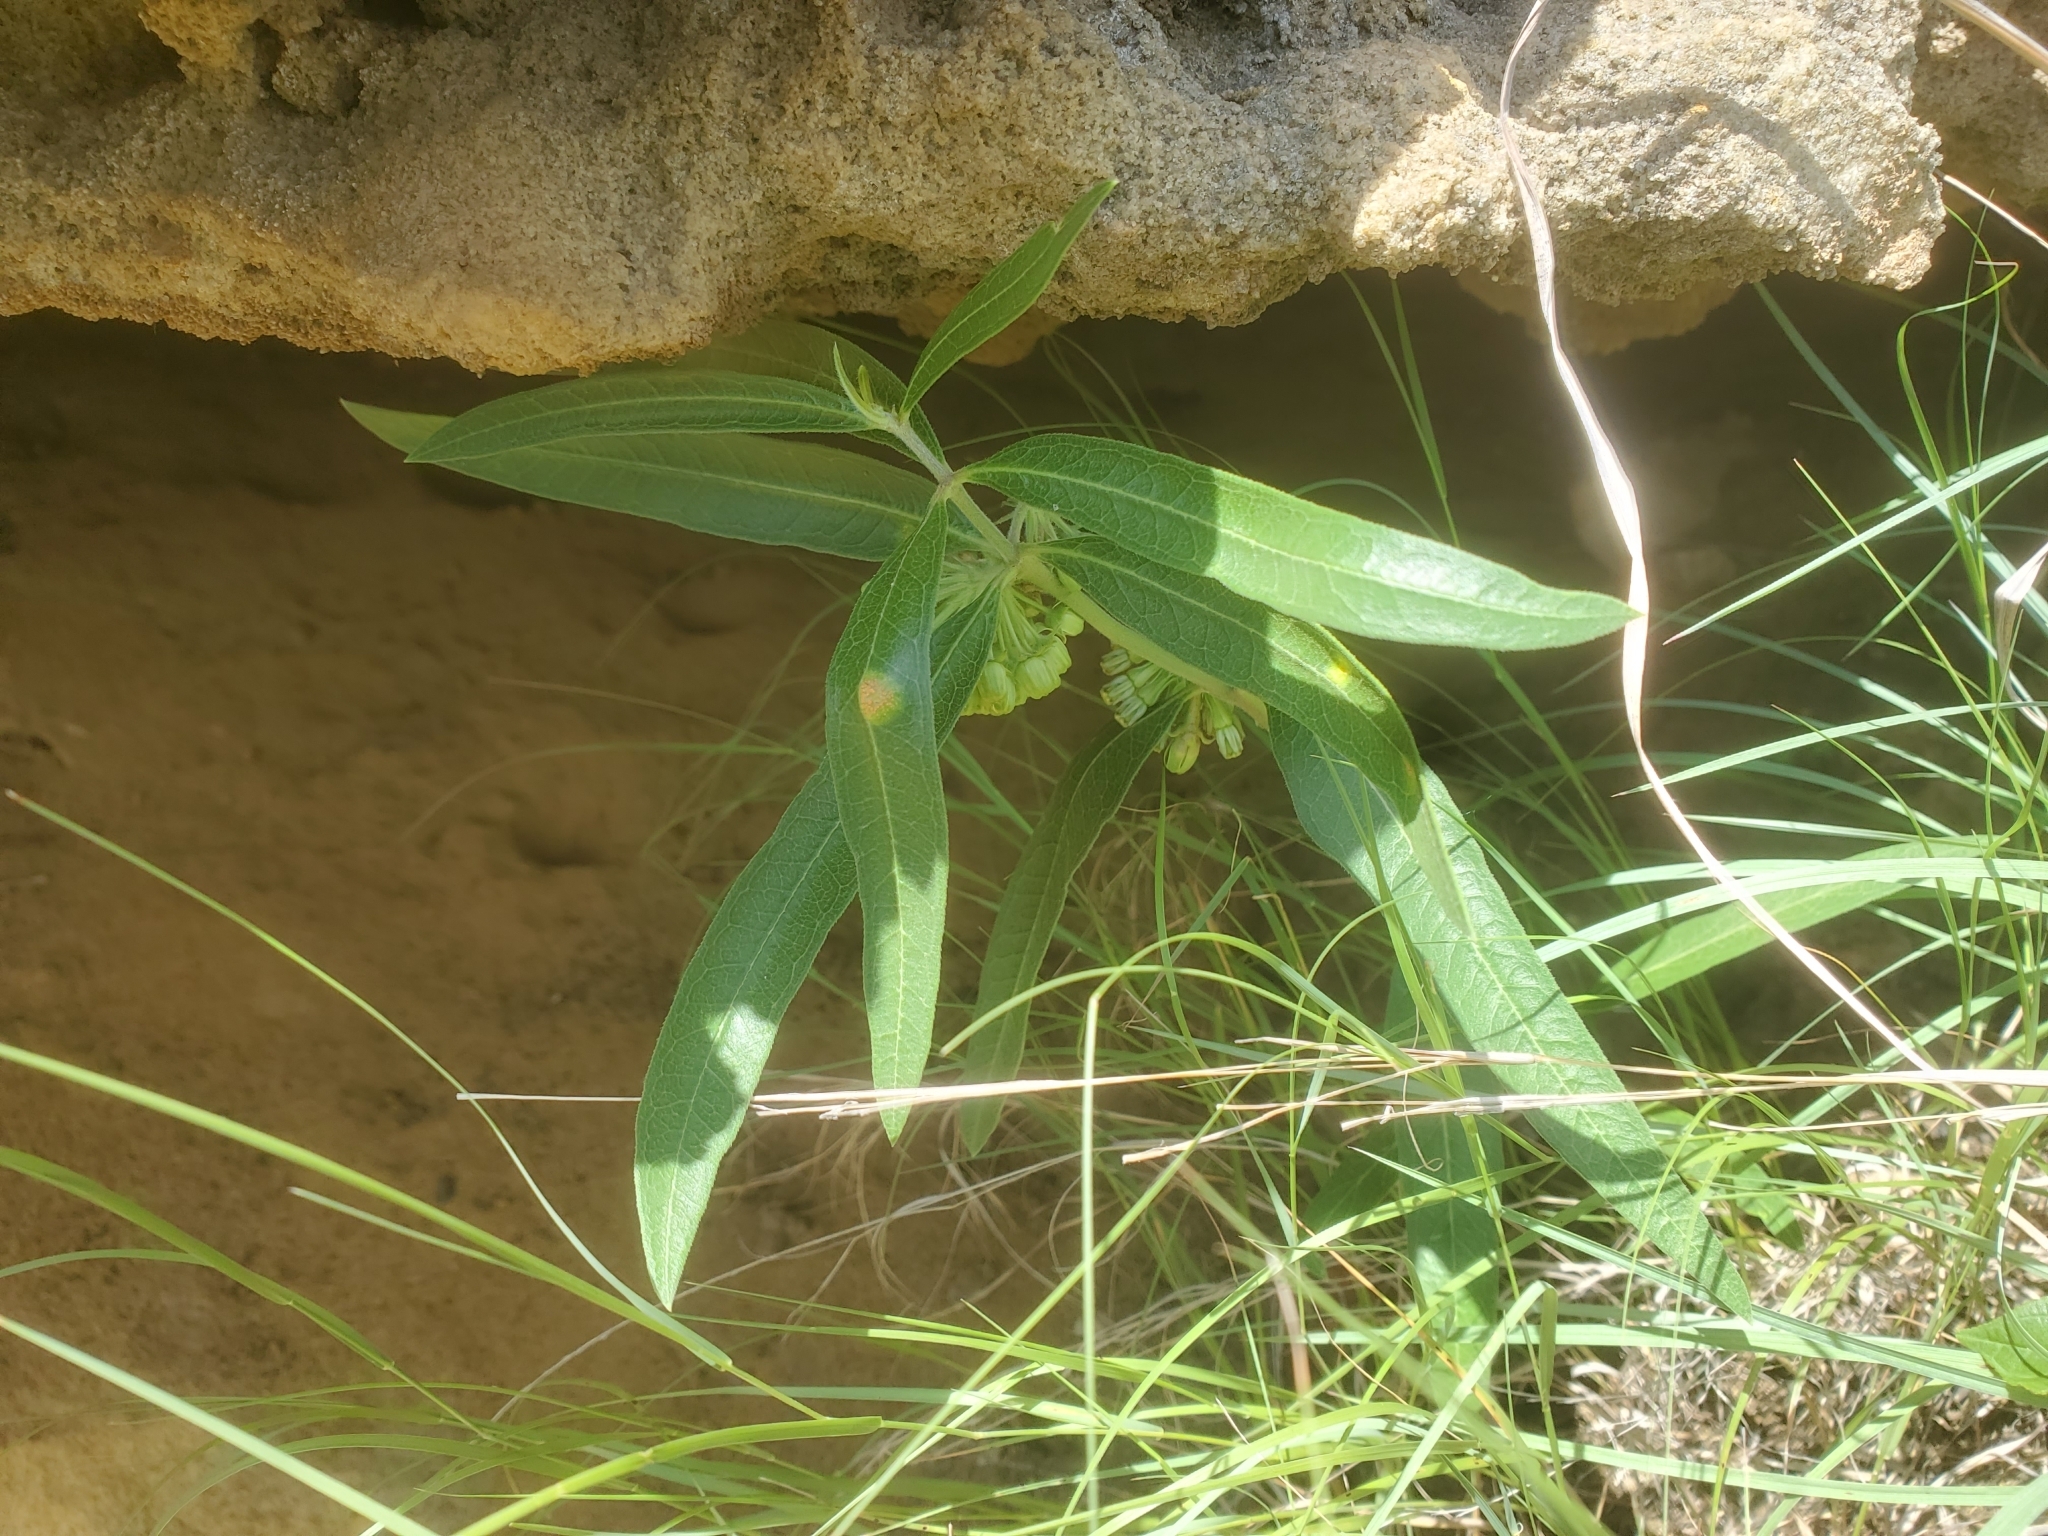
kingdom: Plantae
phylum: Tracheophyta
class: Magnoliopsida
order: Gentianales
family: Apocynaceae
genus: Asclepias
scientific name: Asclepias viridiflora
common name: Green comet milkweed
